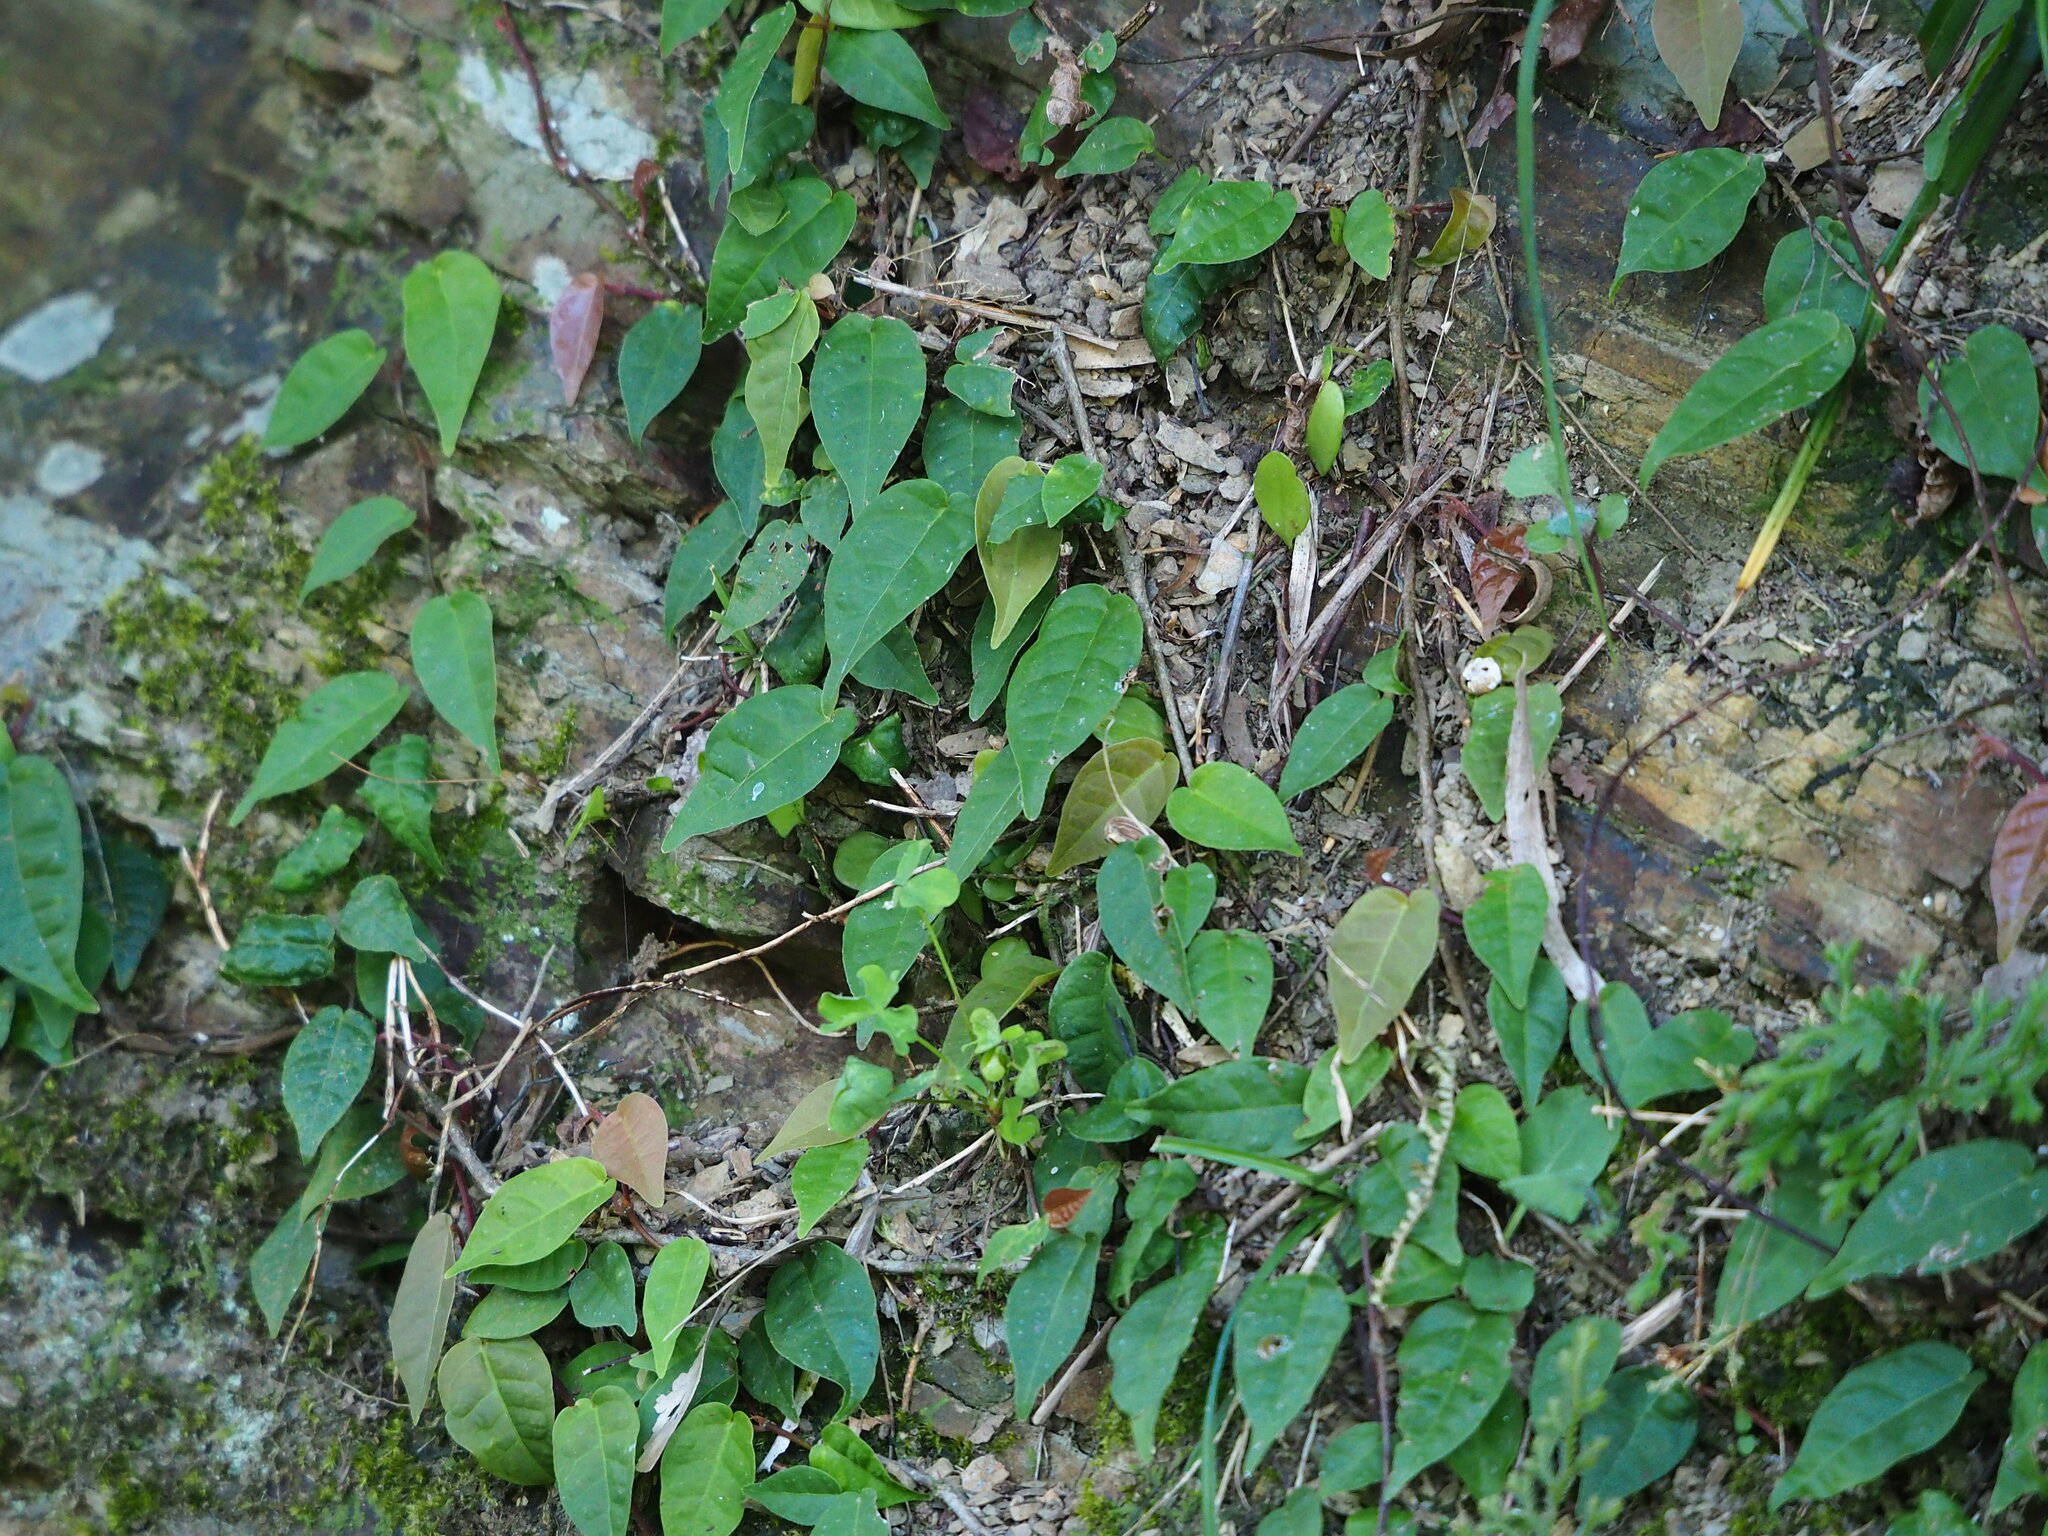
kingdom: Plantae
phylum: Tracheophyta
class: Magnoliopsida
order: Rosales
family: Moraceae
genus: Ficus
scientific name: Ficus sarmentosa
